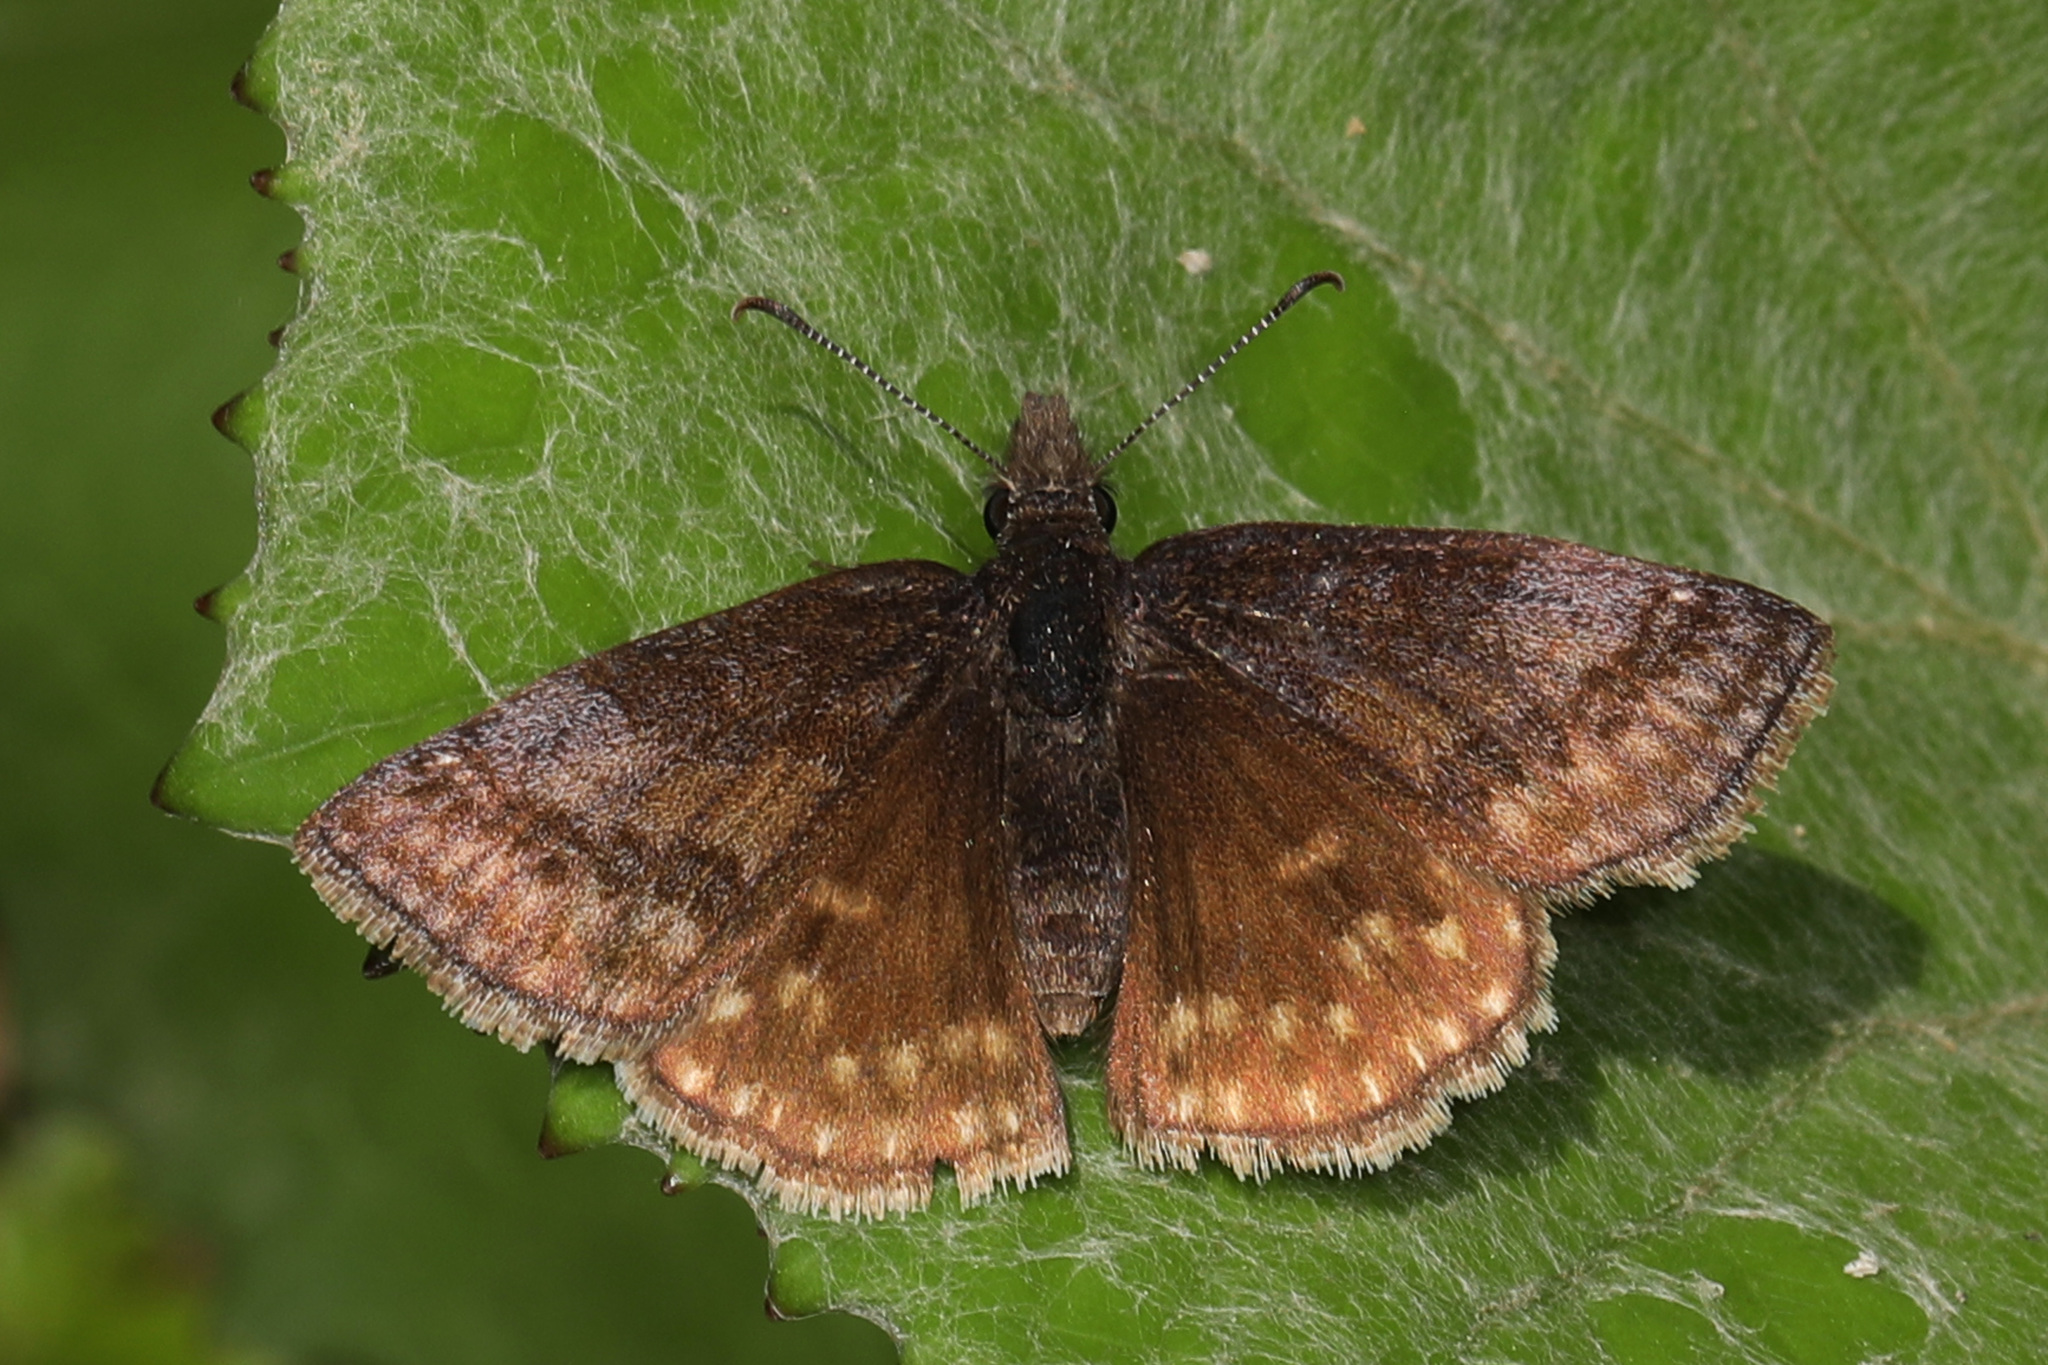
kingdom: Animalia
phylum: Arthropoda
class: Insecta
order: Lepidoptera
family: Hesperiidae
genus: Erynnis
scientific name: Erynnis icelus
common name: Dreamy duskywing
